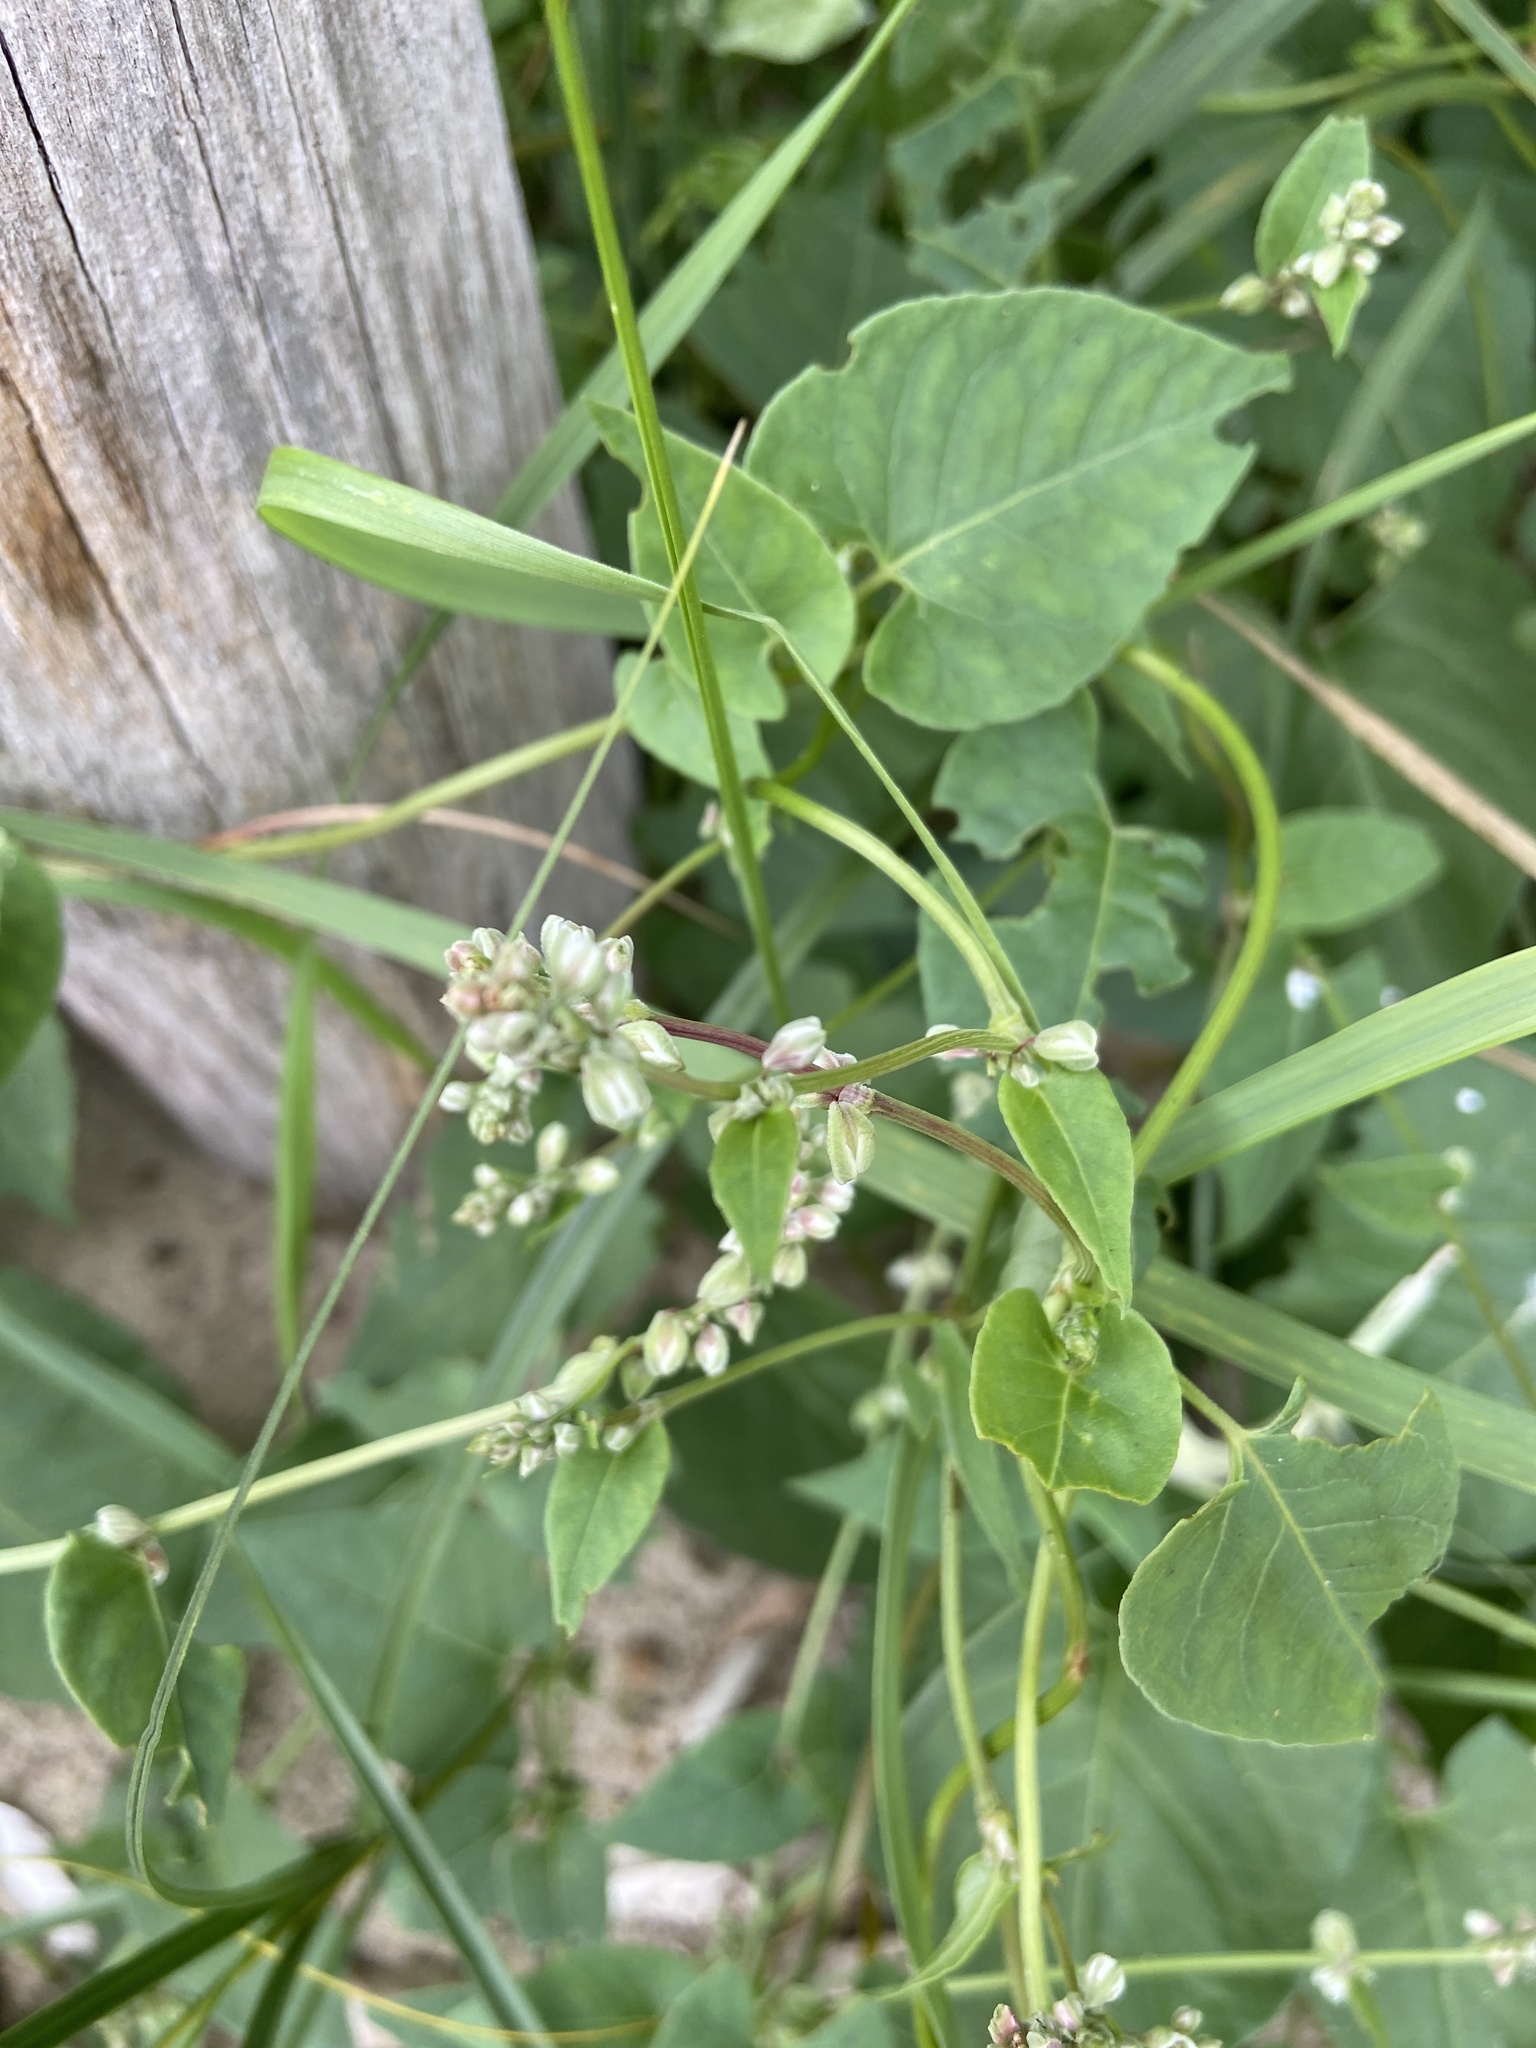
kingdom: Plantae
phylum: Tracheophyta
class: Magnoliopsida
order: Caryophyllales
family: Polygonaceae
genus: Fallopia
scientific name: Fallopia convolvulus
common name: Black bindweed
